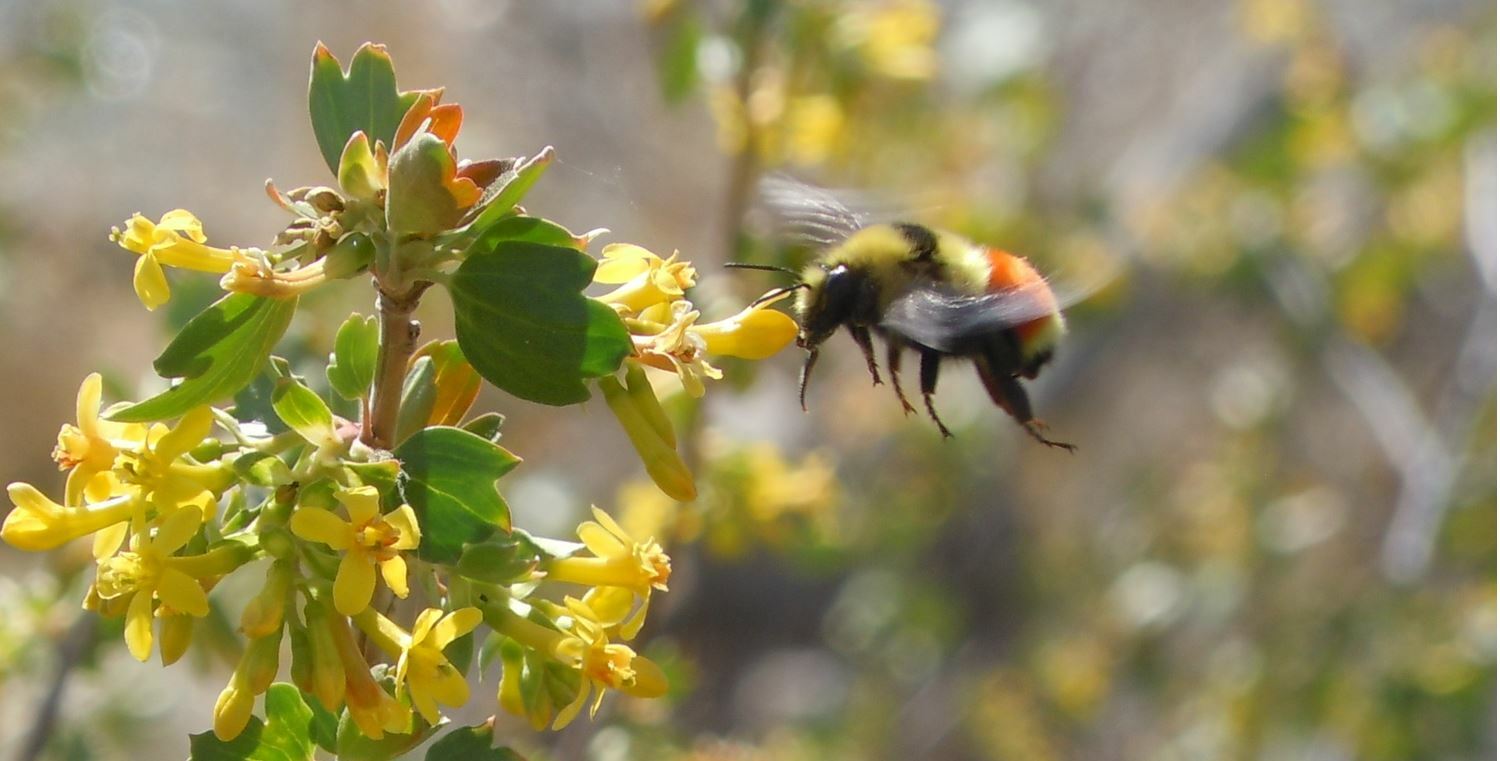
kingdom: Animalia
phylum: Arthropoda
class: Insecta
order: Hymenoptera
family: Apidae
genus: Bombus
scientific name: Bombus huntii
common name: Hunt bumble bee
